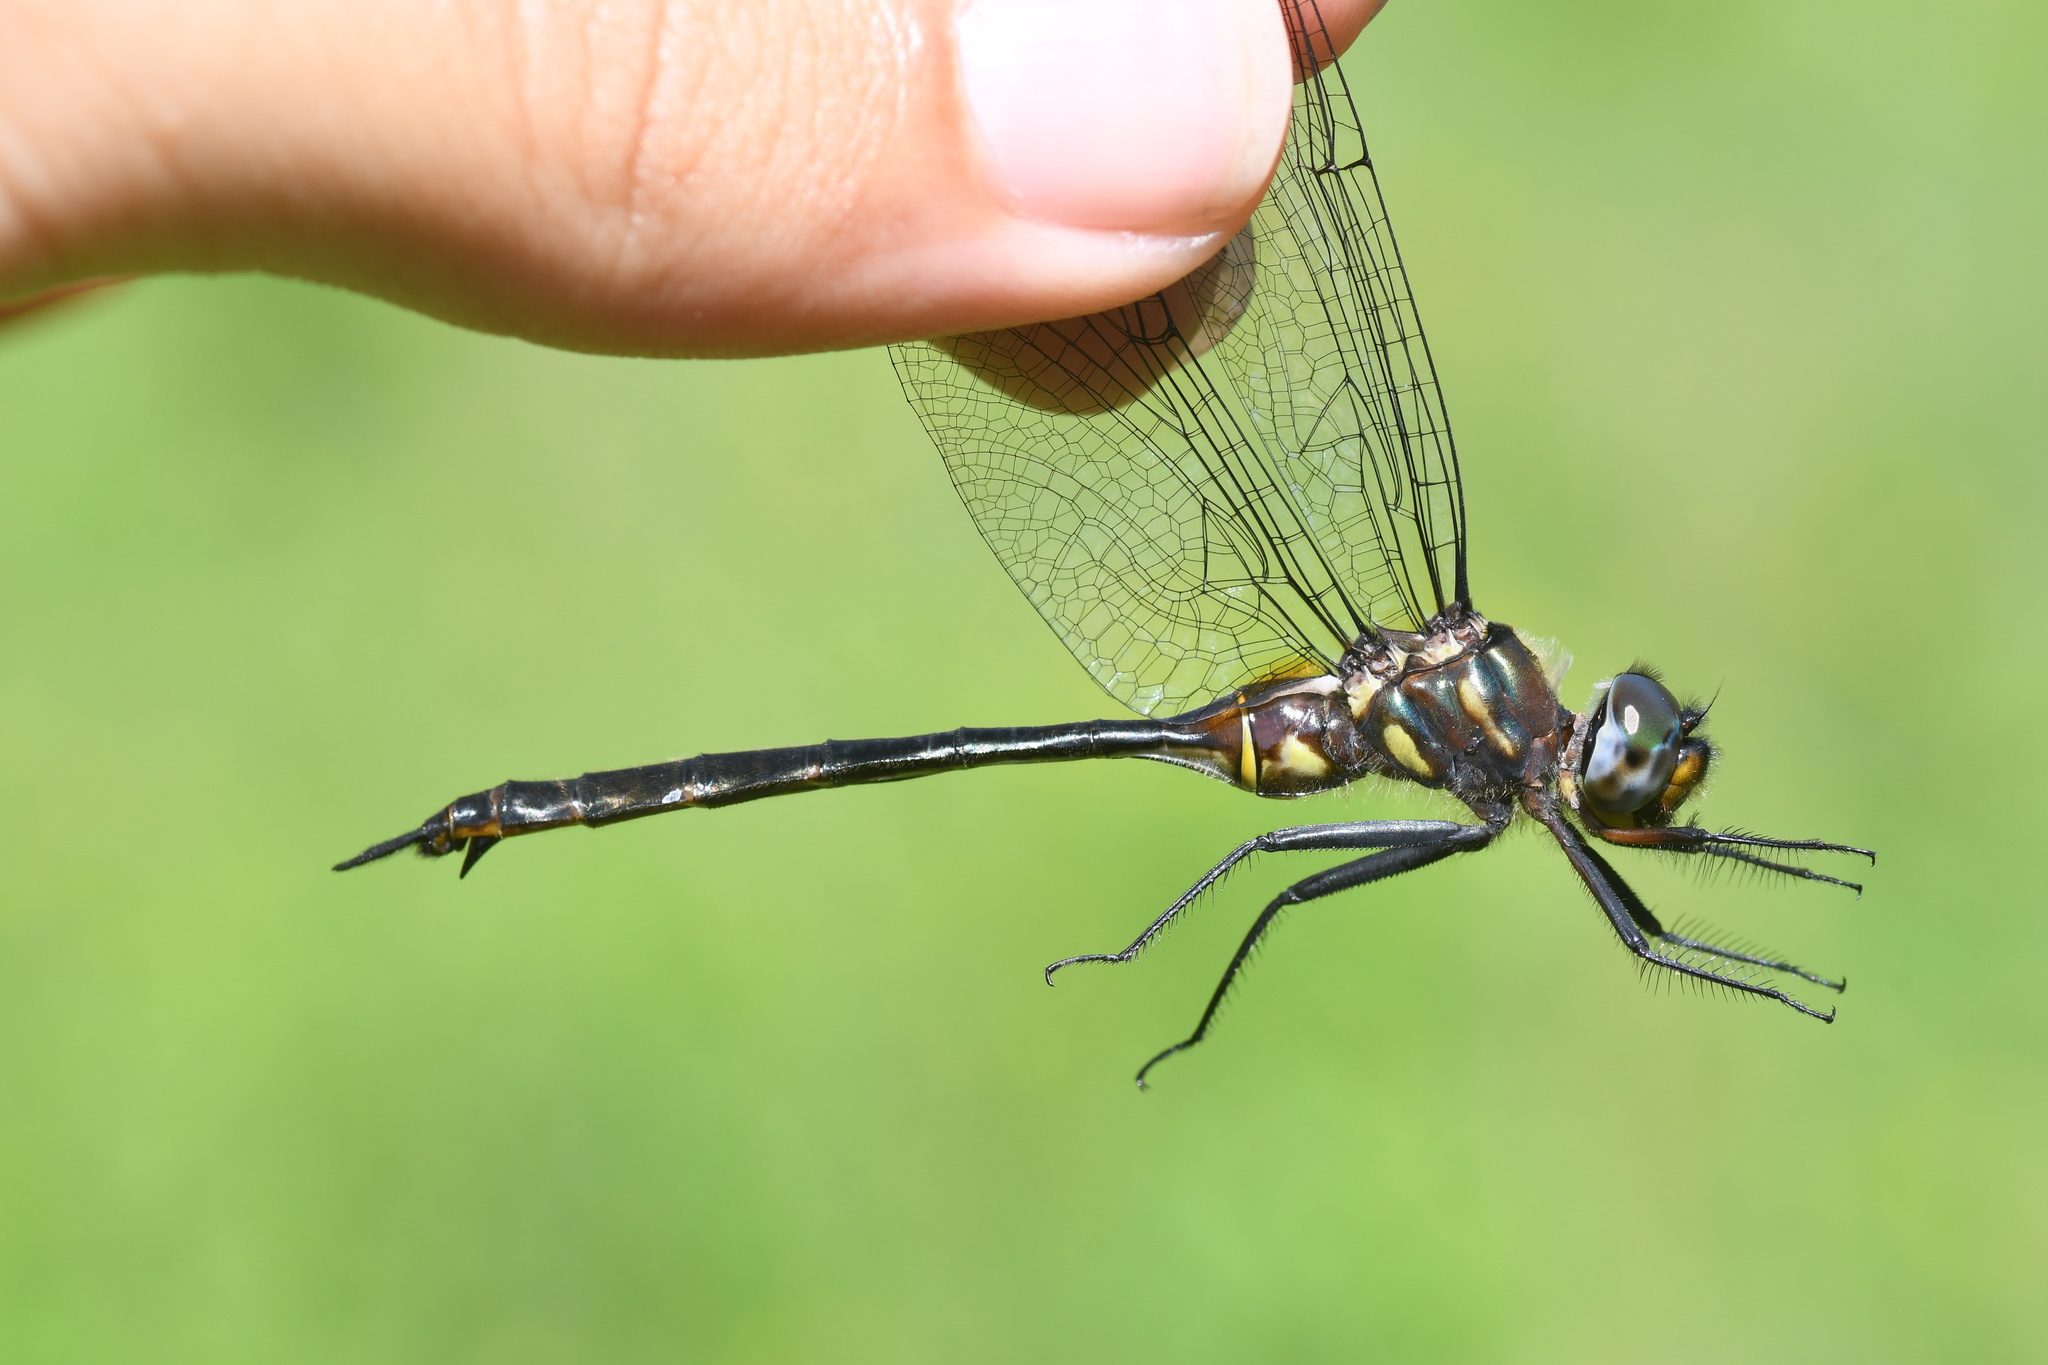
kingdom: Animalia
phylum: Arthropoda
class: Insecta
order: Odonata
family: Corduliidae
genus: Somatochlora
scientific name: Somatochlora tenebrosa
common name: Clamp-tipped emerald
